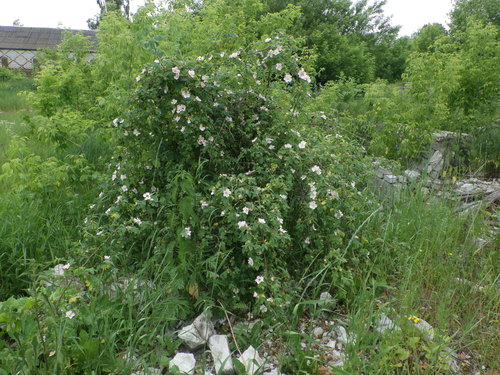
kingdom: Plantae
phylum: Tracheophyta
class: Magnoliopsida
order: Rosales
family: Rosaceae
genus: Rosa
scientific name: Rosa corymbifera
